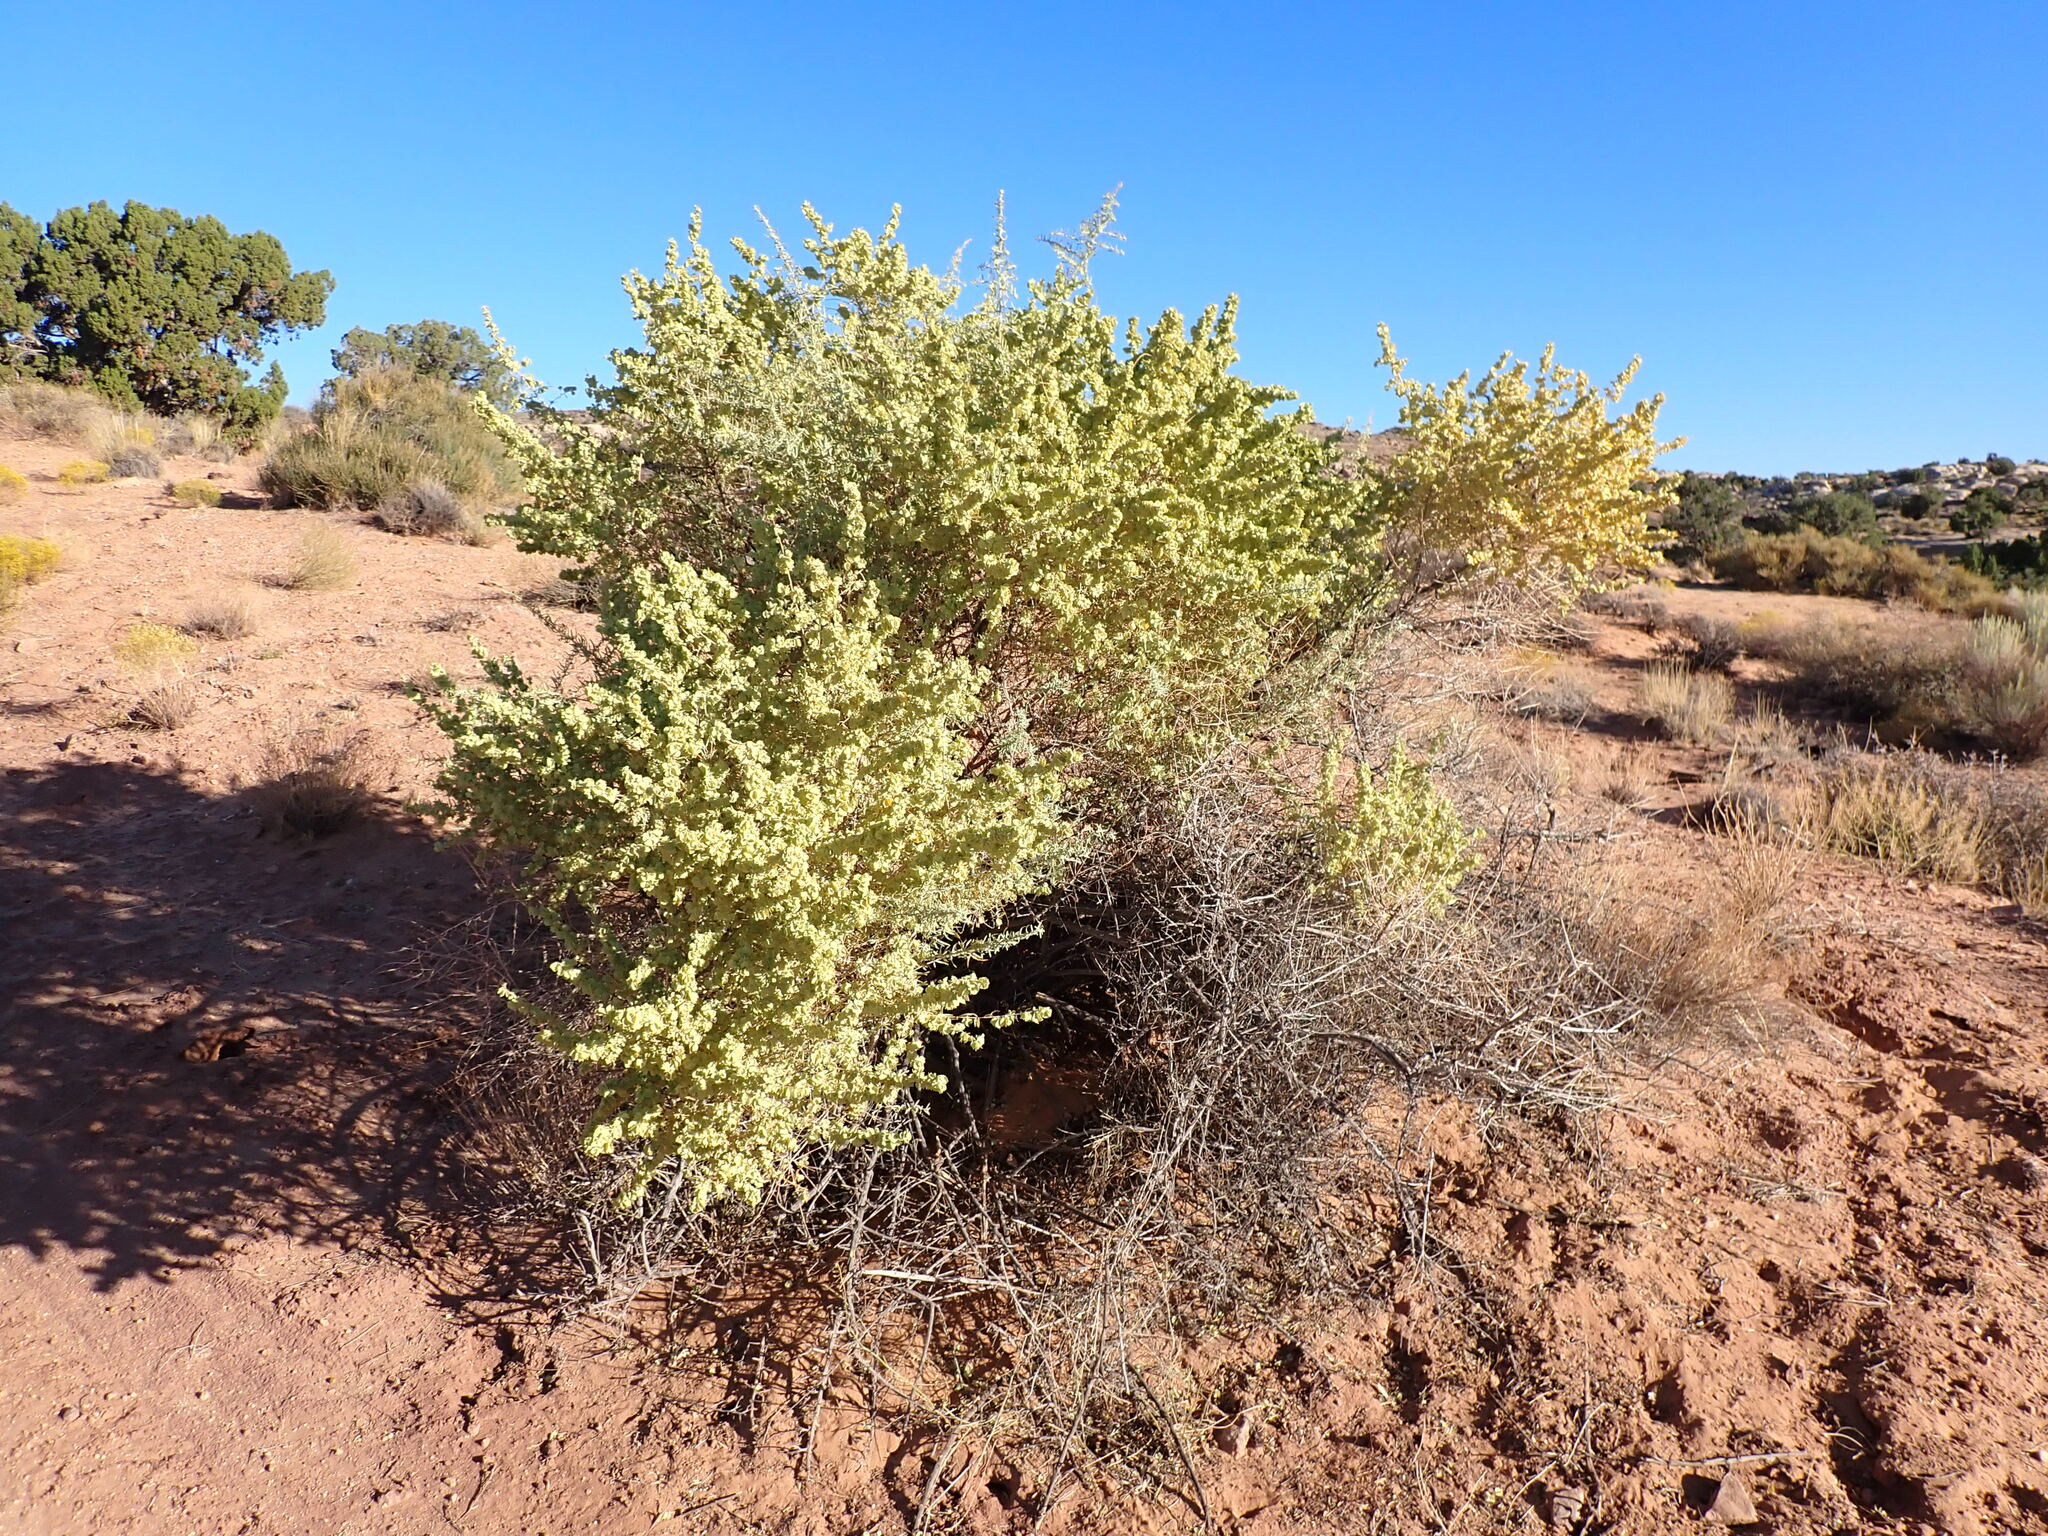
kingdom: Plantae
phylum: Tracheophyta
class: Magnoliopsida
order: Caryophyllales
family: Amaranthaceae
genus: Atriplex
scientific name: Atriplex canescens
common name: Four-wing saltbush
